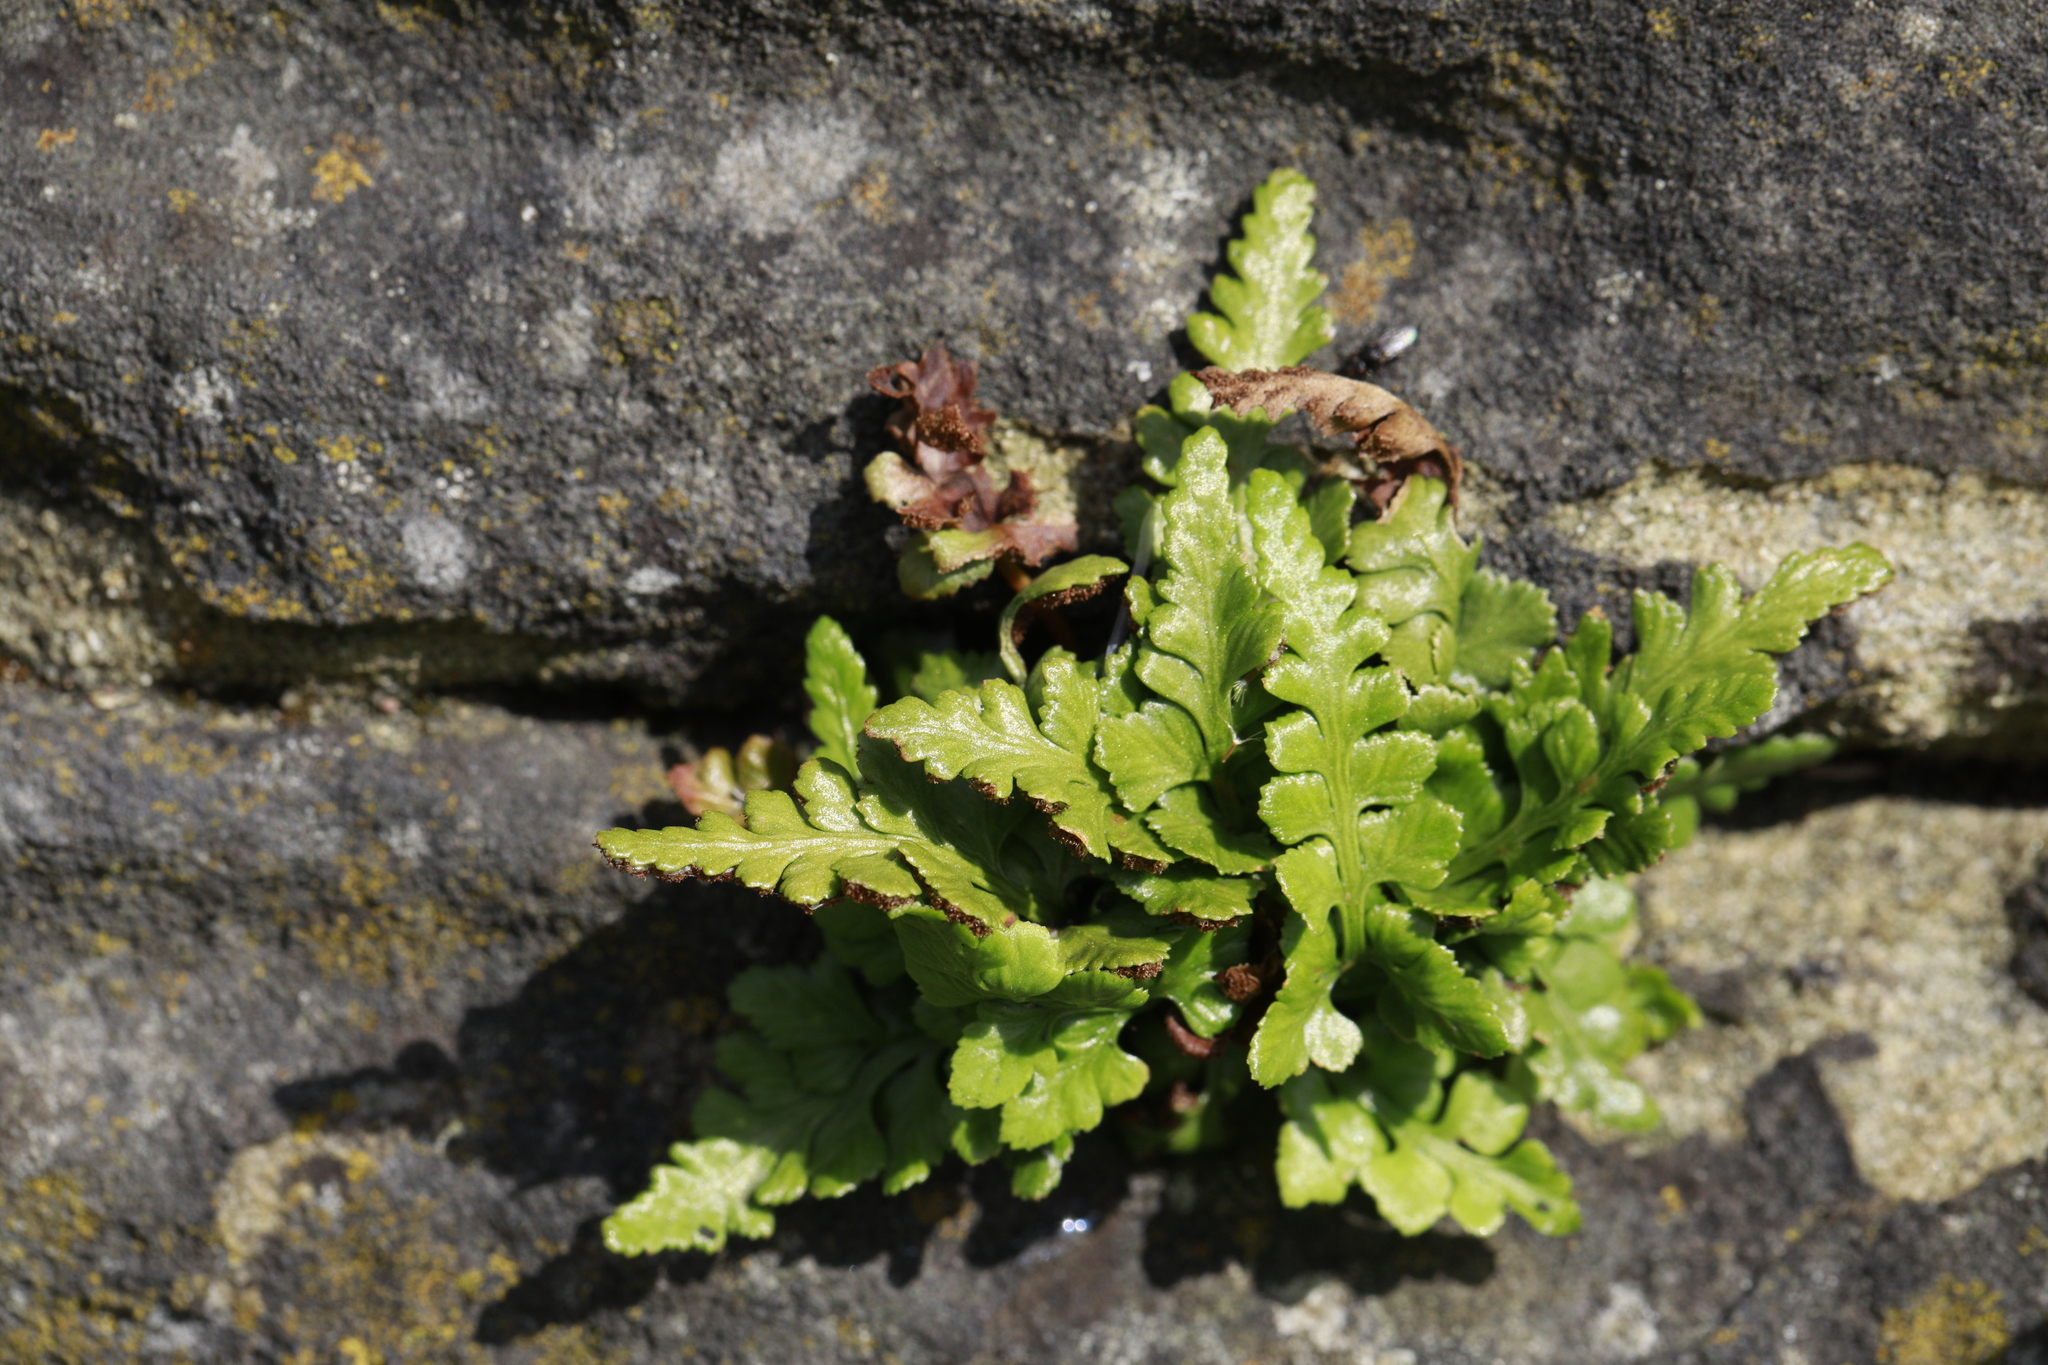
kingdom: Plantae
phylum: Tracheophyta
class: Polypodiopsida
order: Polypodiales
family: Aspleniaceae
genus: Asplenium
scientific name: Asplenium adiantum-nigrum
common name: Black spleenwort
